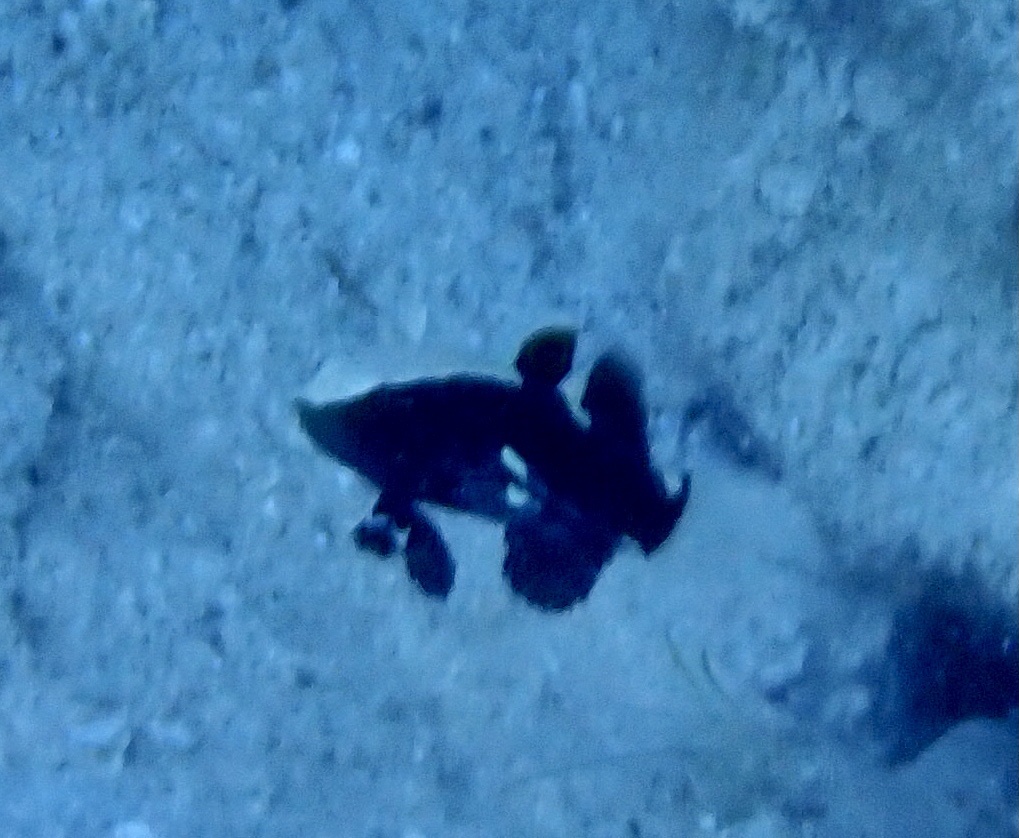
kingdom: Animalia
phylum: Chordata
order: Perciformes
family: Gobiidae
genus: Lotilia
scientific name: Lotilia graciliosa
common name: Whitecap goby
